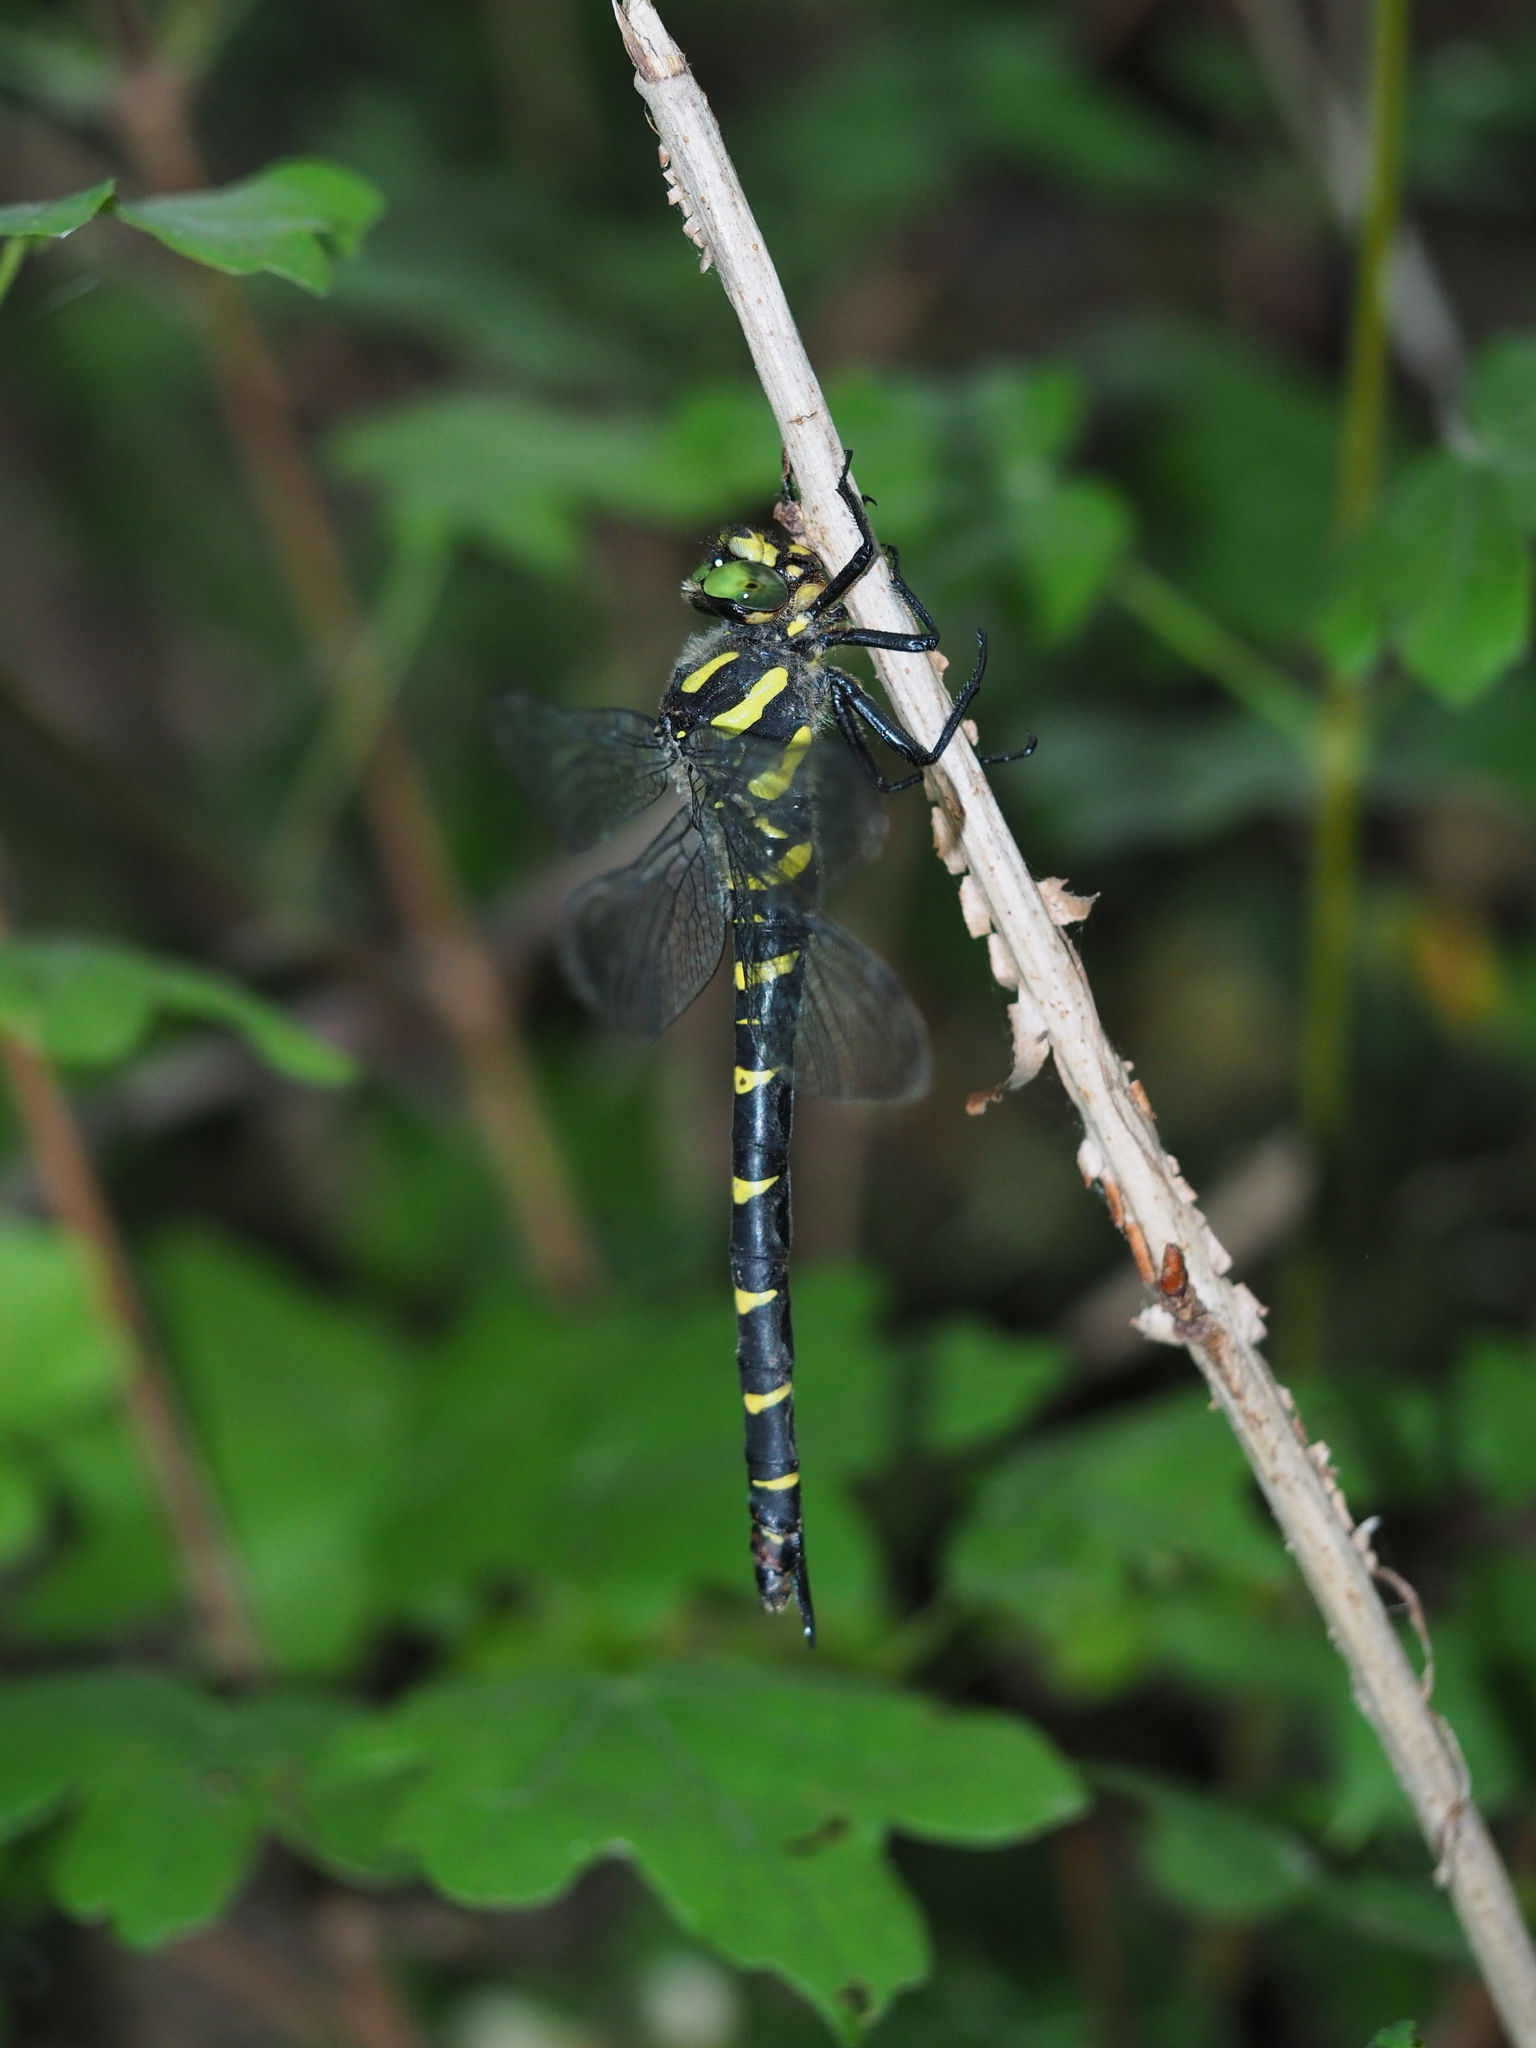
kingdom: Animalia
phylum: Arthropoda
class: Insecta
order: Odonata
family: Cordulegastridae
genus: Cordulegaster
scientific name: Cordulegaster bidentata
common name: Sombre goldenring
